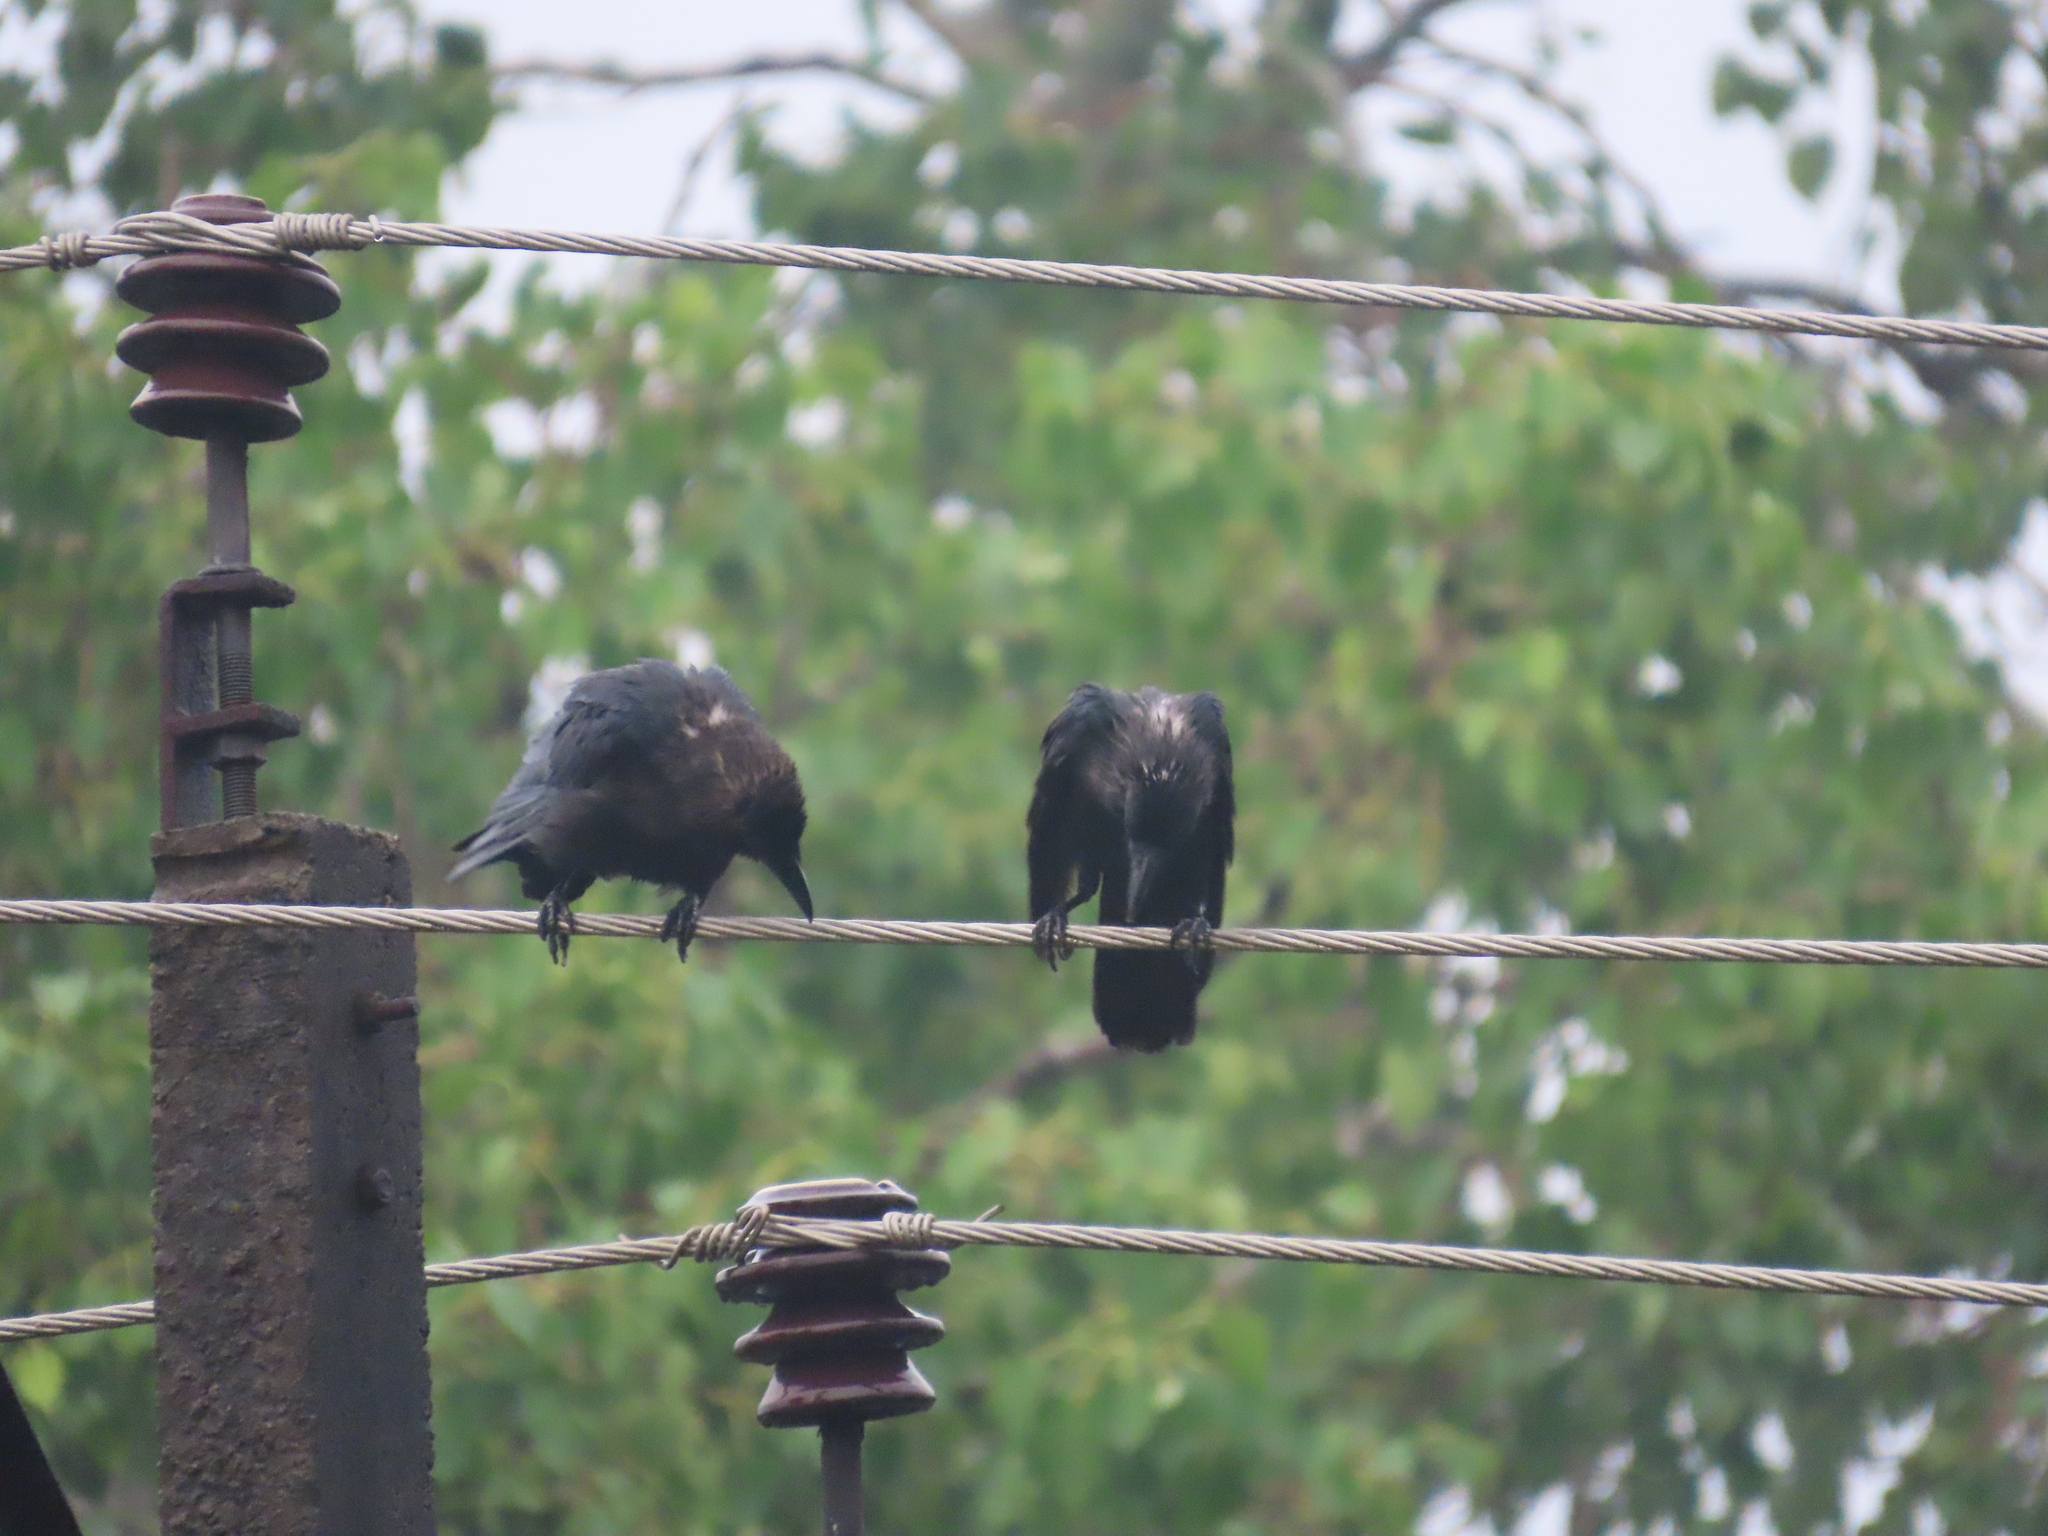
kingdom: Animalia
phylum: Chordata
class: Aves
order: Passeriformes
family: Corvidae
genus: Corvus
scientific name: Corvus splendens
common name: House crow
